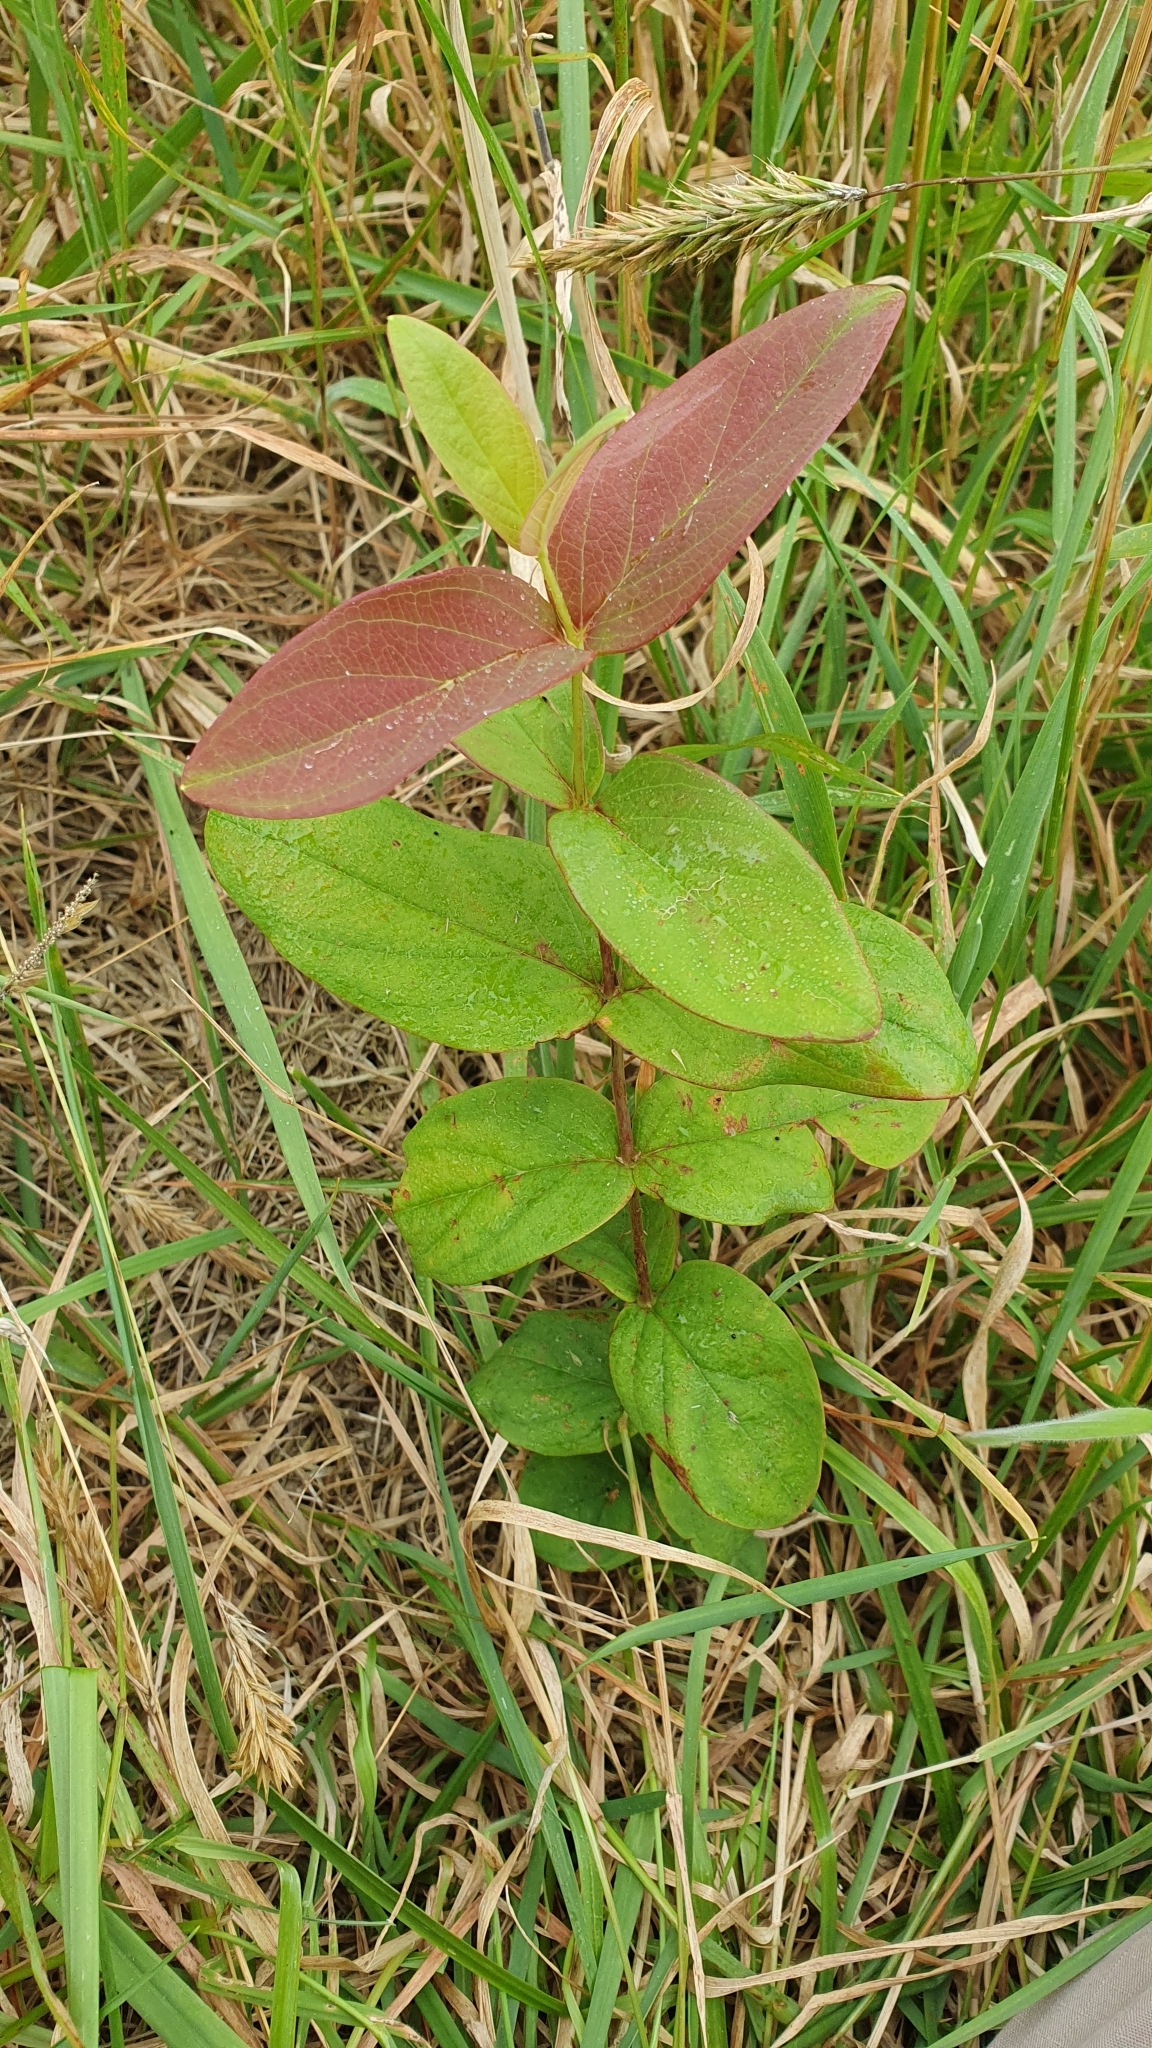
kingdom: Plantae
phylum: Tracheophyta
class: Magnoliopsida
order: Malpighiales
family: Hypericaceae
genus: Hypericum
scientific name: Hypericum androsaemum
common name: Sweet-amber
